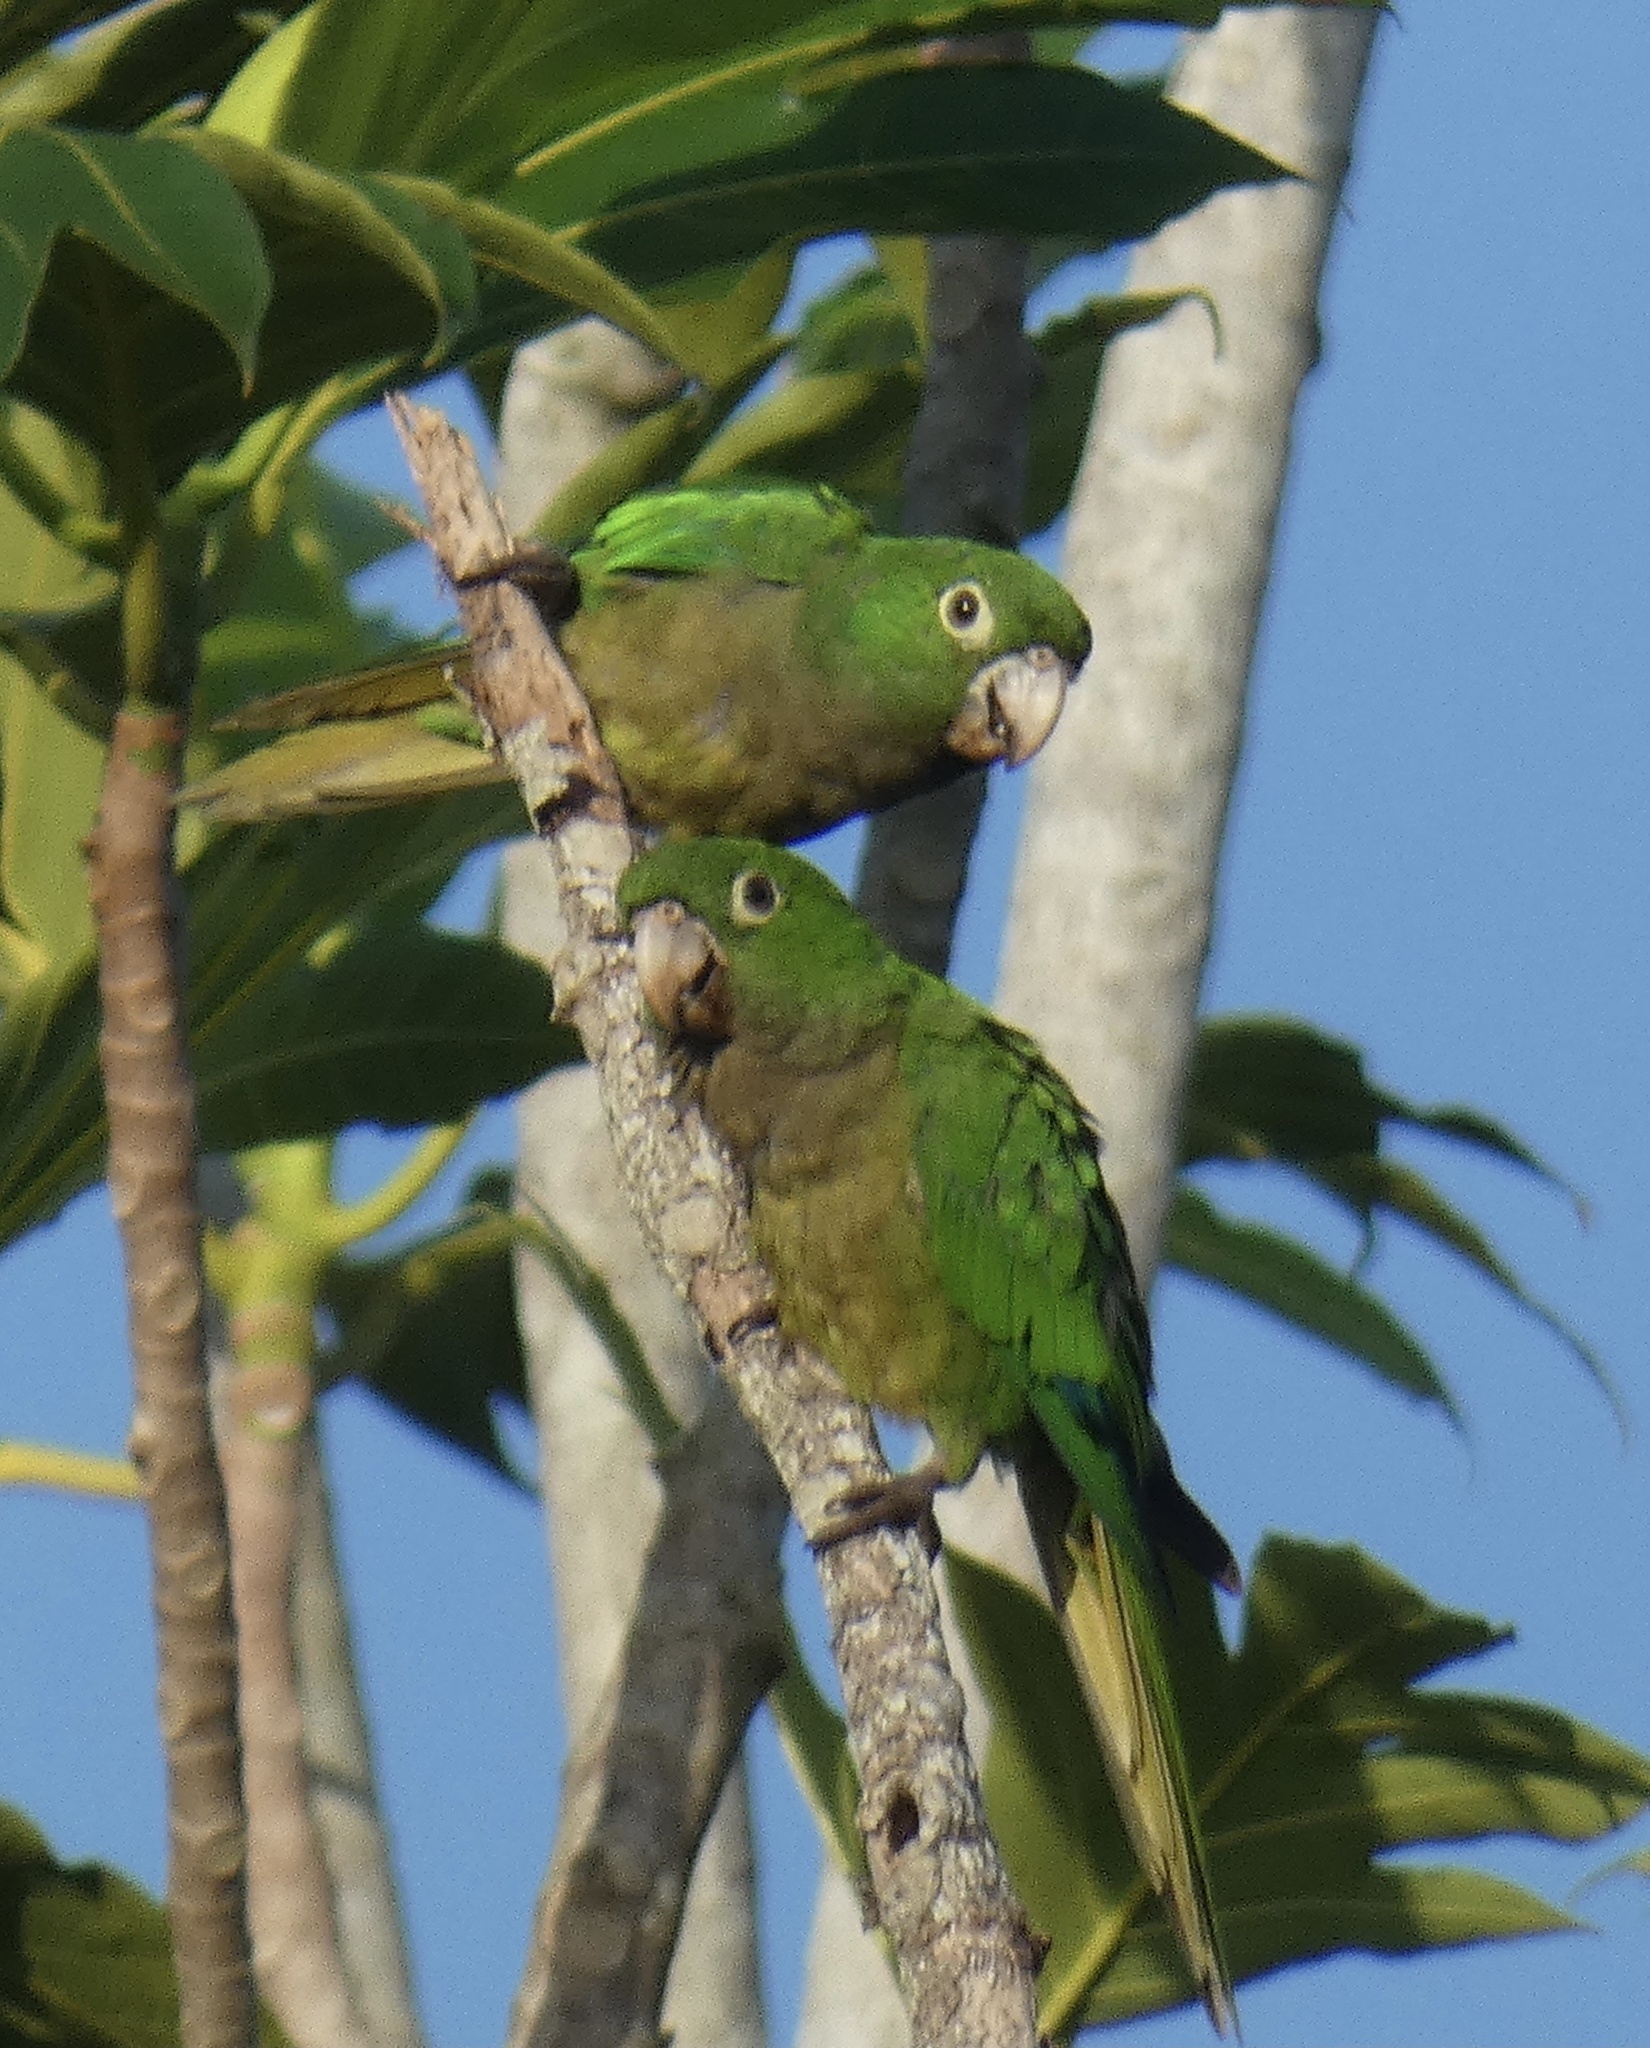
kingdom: Animalia
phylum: Chordata
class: Aves
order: Psittaciformes
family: Psittacidae
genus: Aratinga
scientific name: Aratinga nana
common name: Olive-throated parakeet
